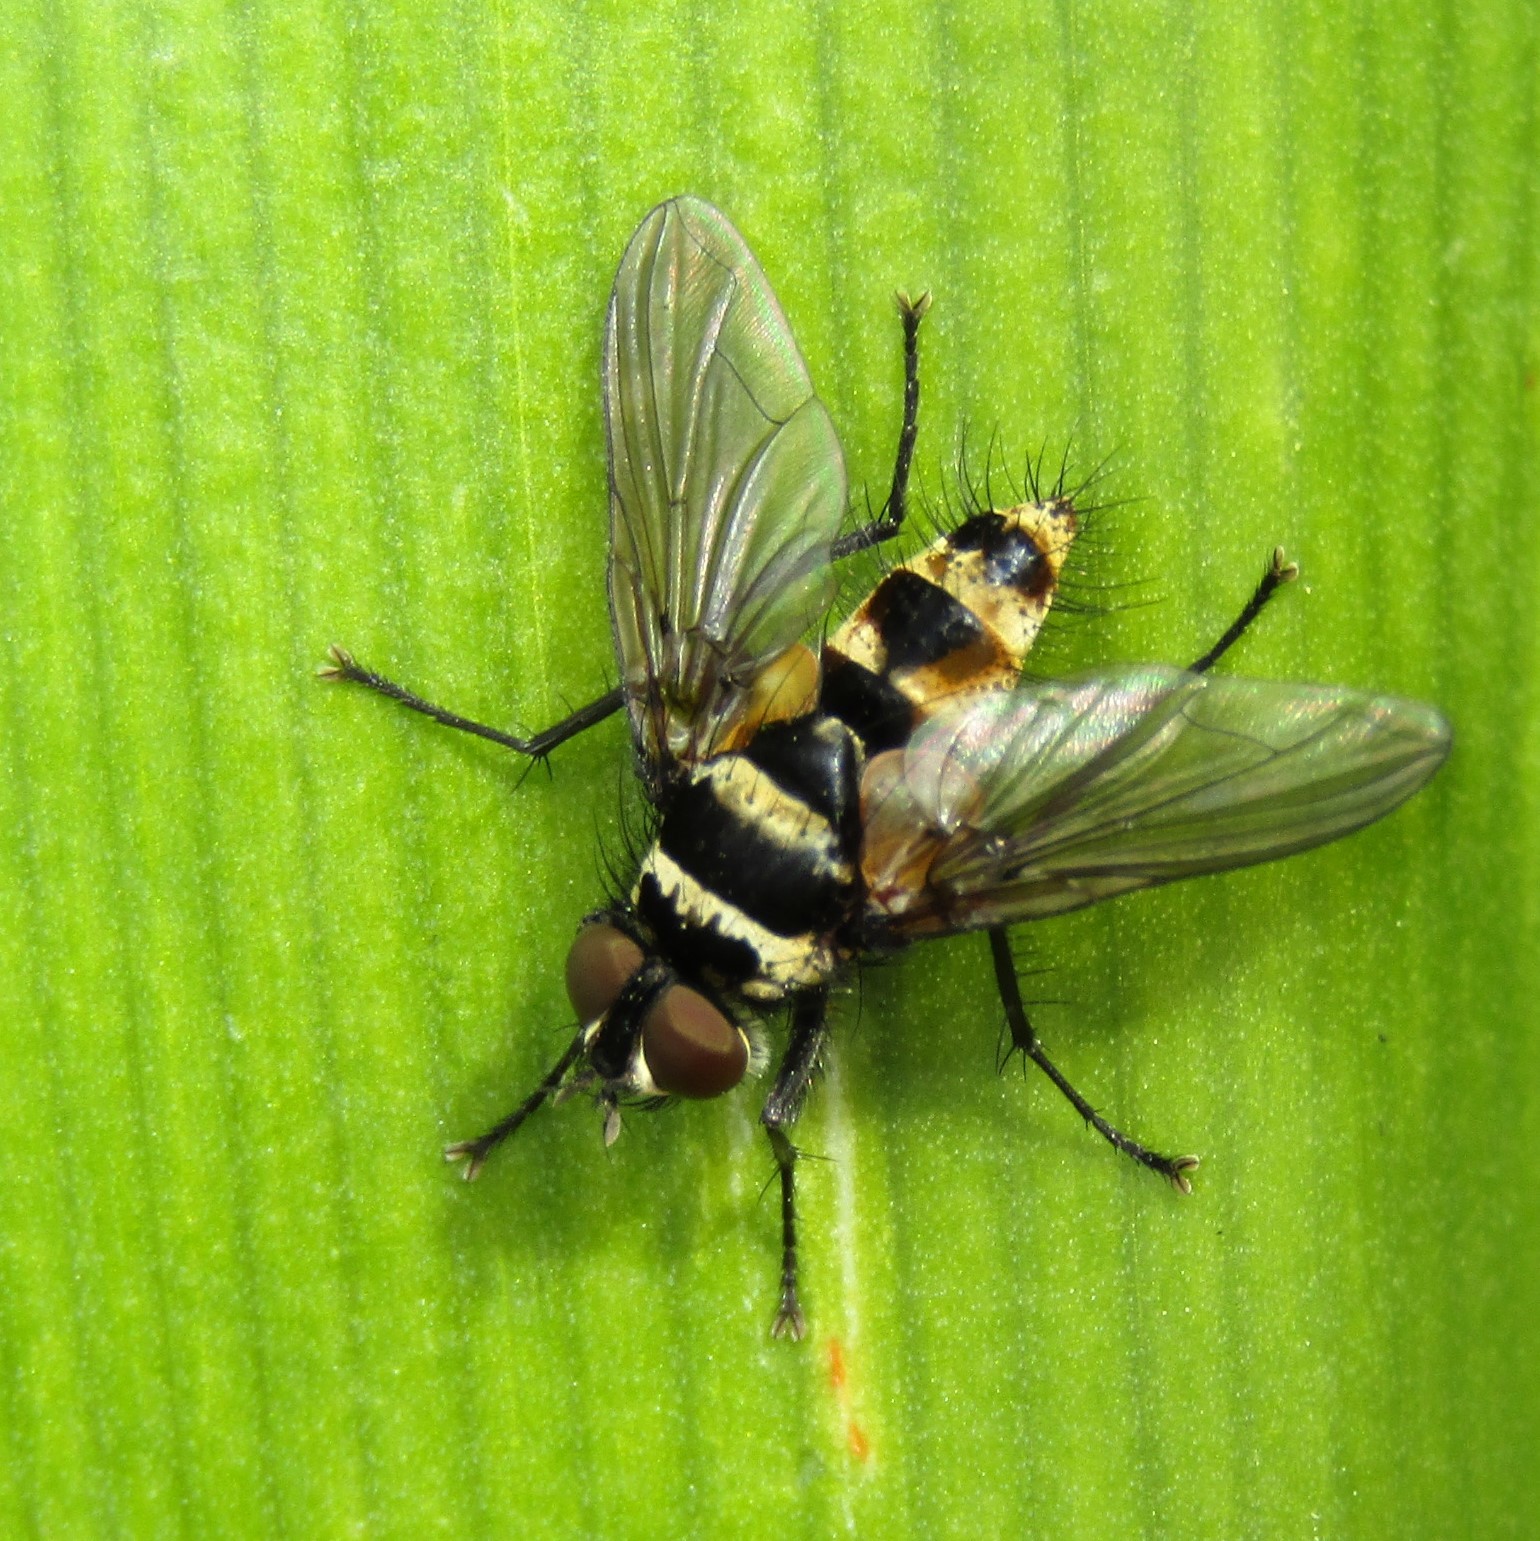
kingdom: Animalia
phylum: Arthropoda
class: Insecta
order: Diptera
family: Tachinidae
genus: Trigonospila
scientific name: Trigonospila brevifacies
